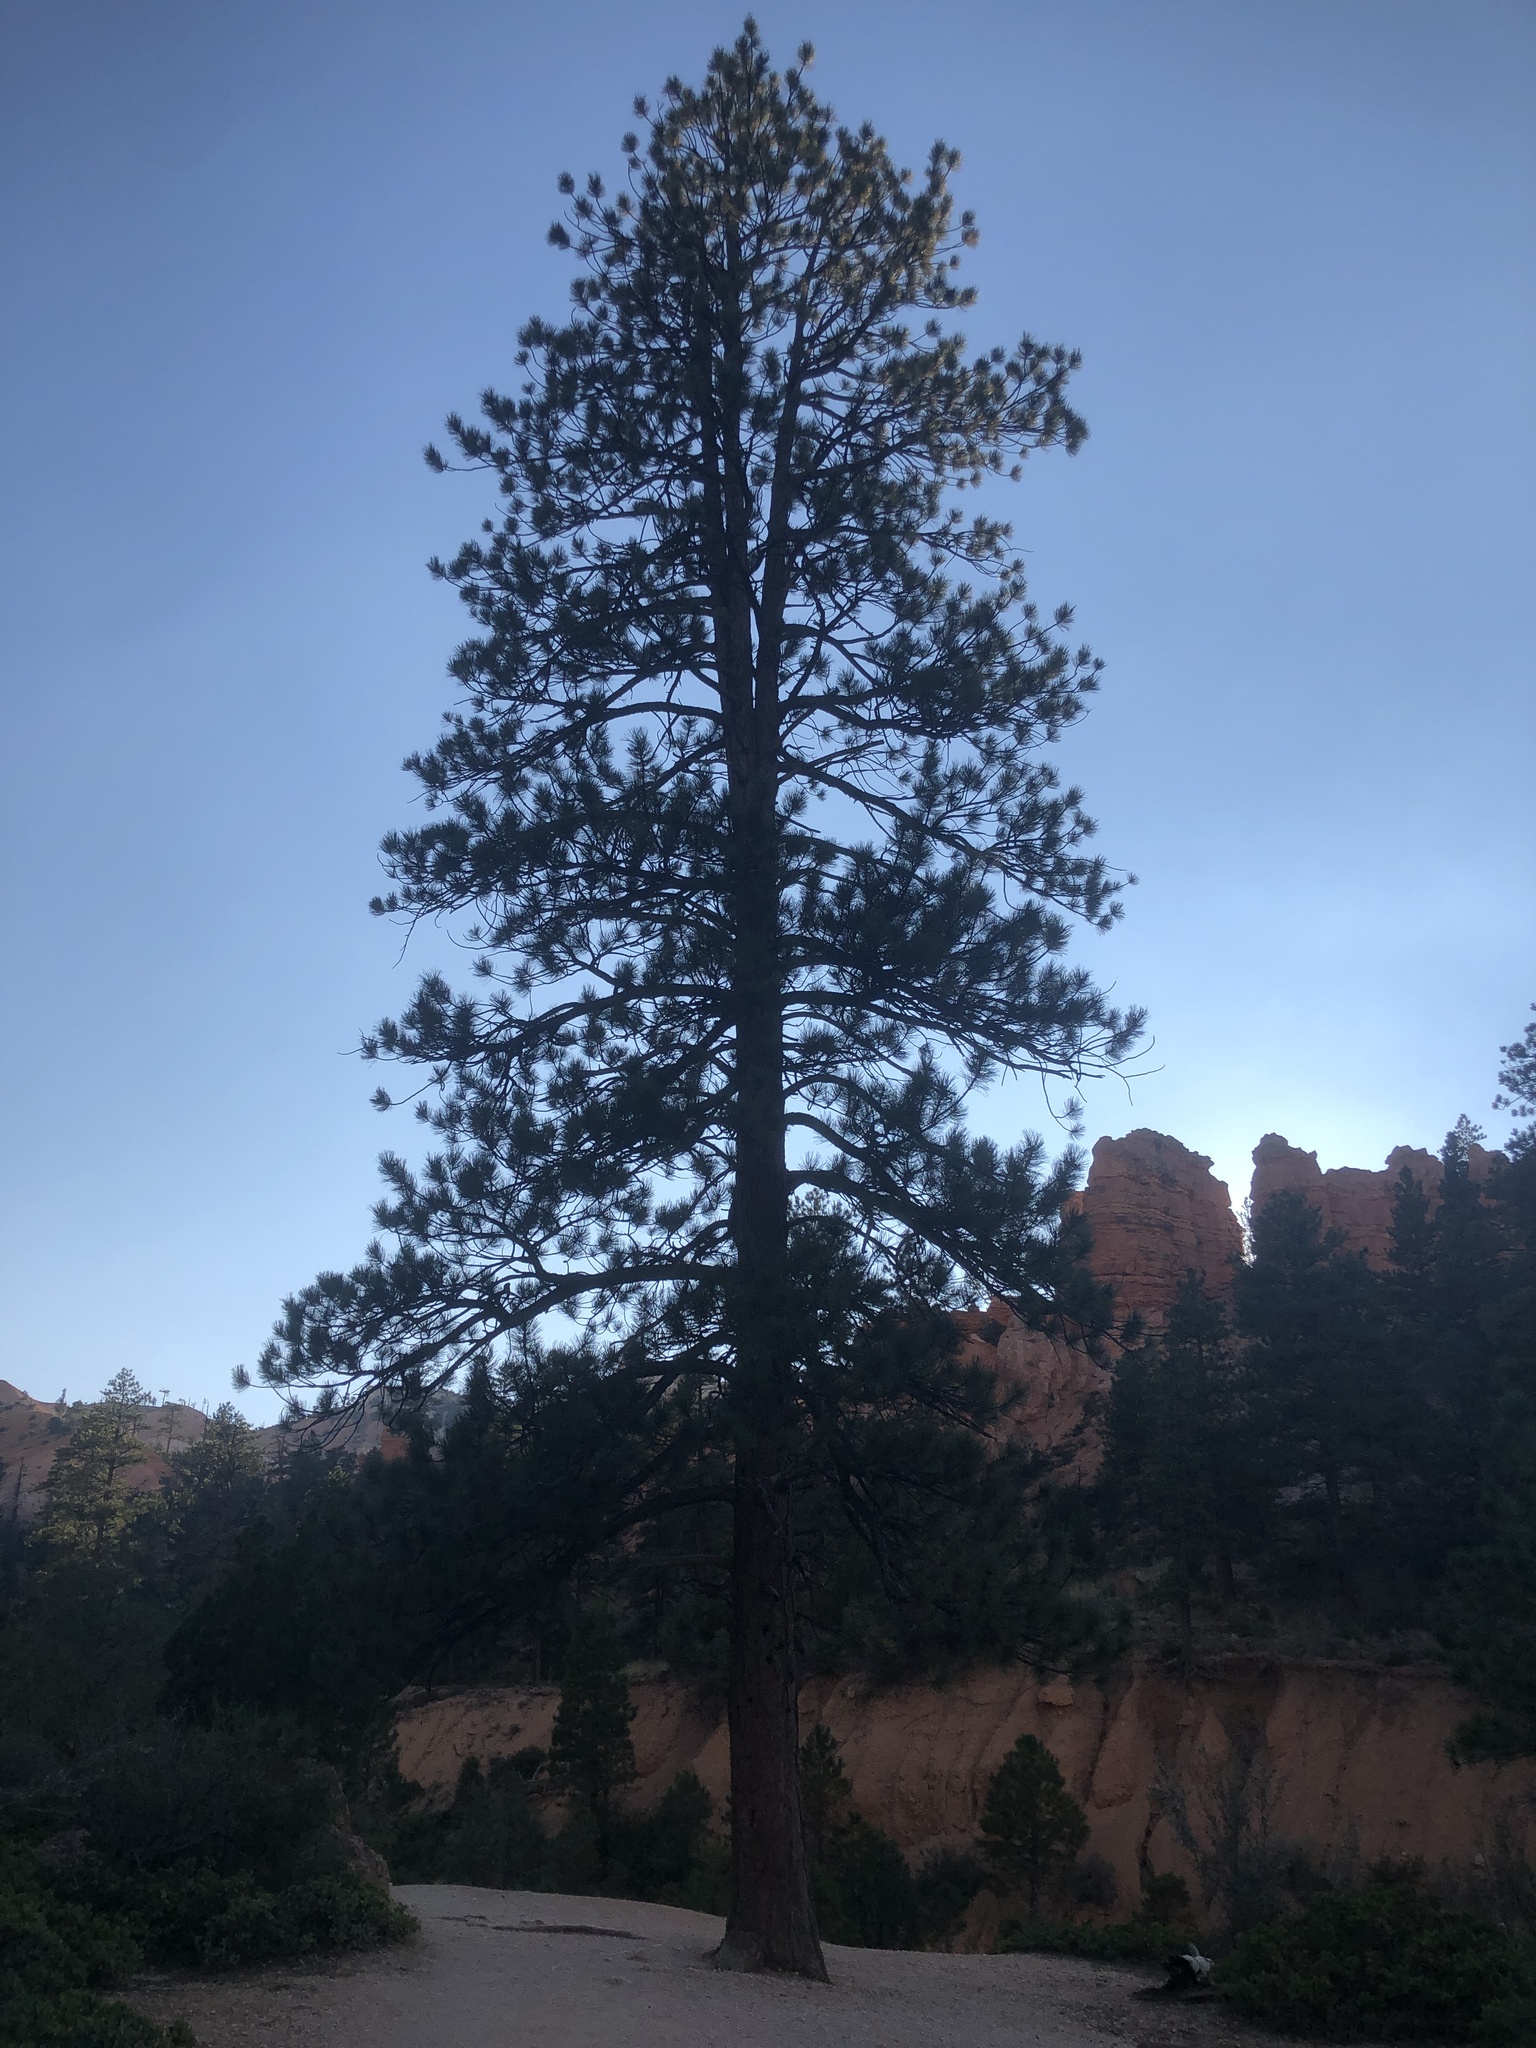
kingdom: Plantae
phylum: Tracheophyta
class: Pinopsida
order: Pinales
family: Pinaceae
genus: Pinus
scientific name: Pinus ponderosa
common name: Western yellow-pine
